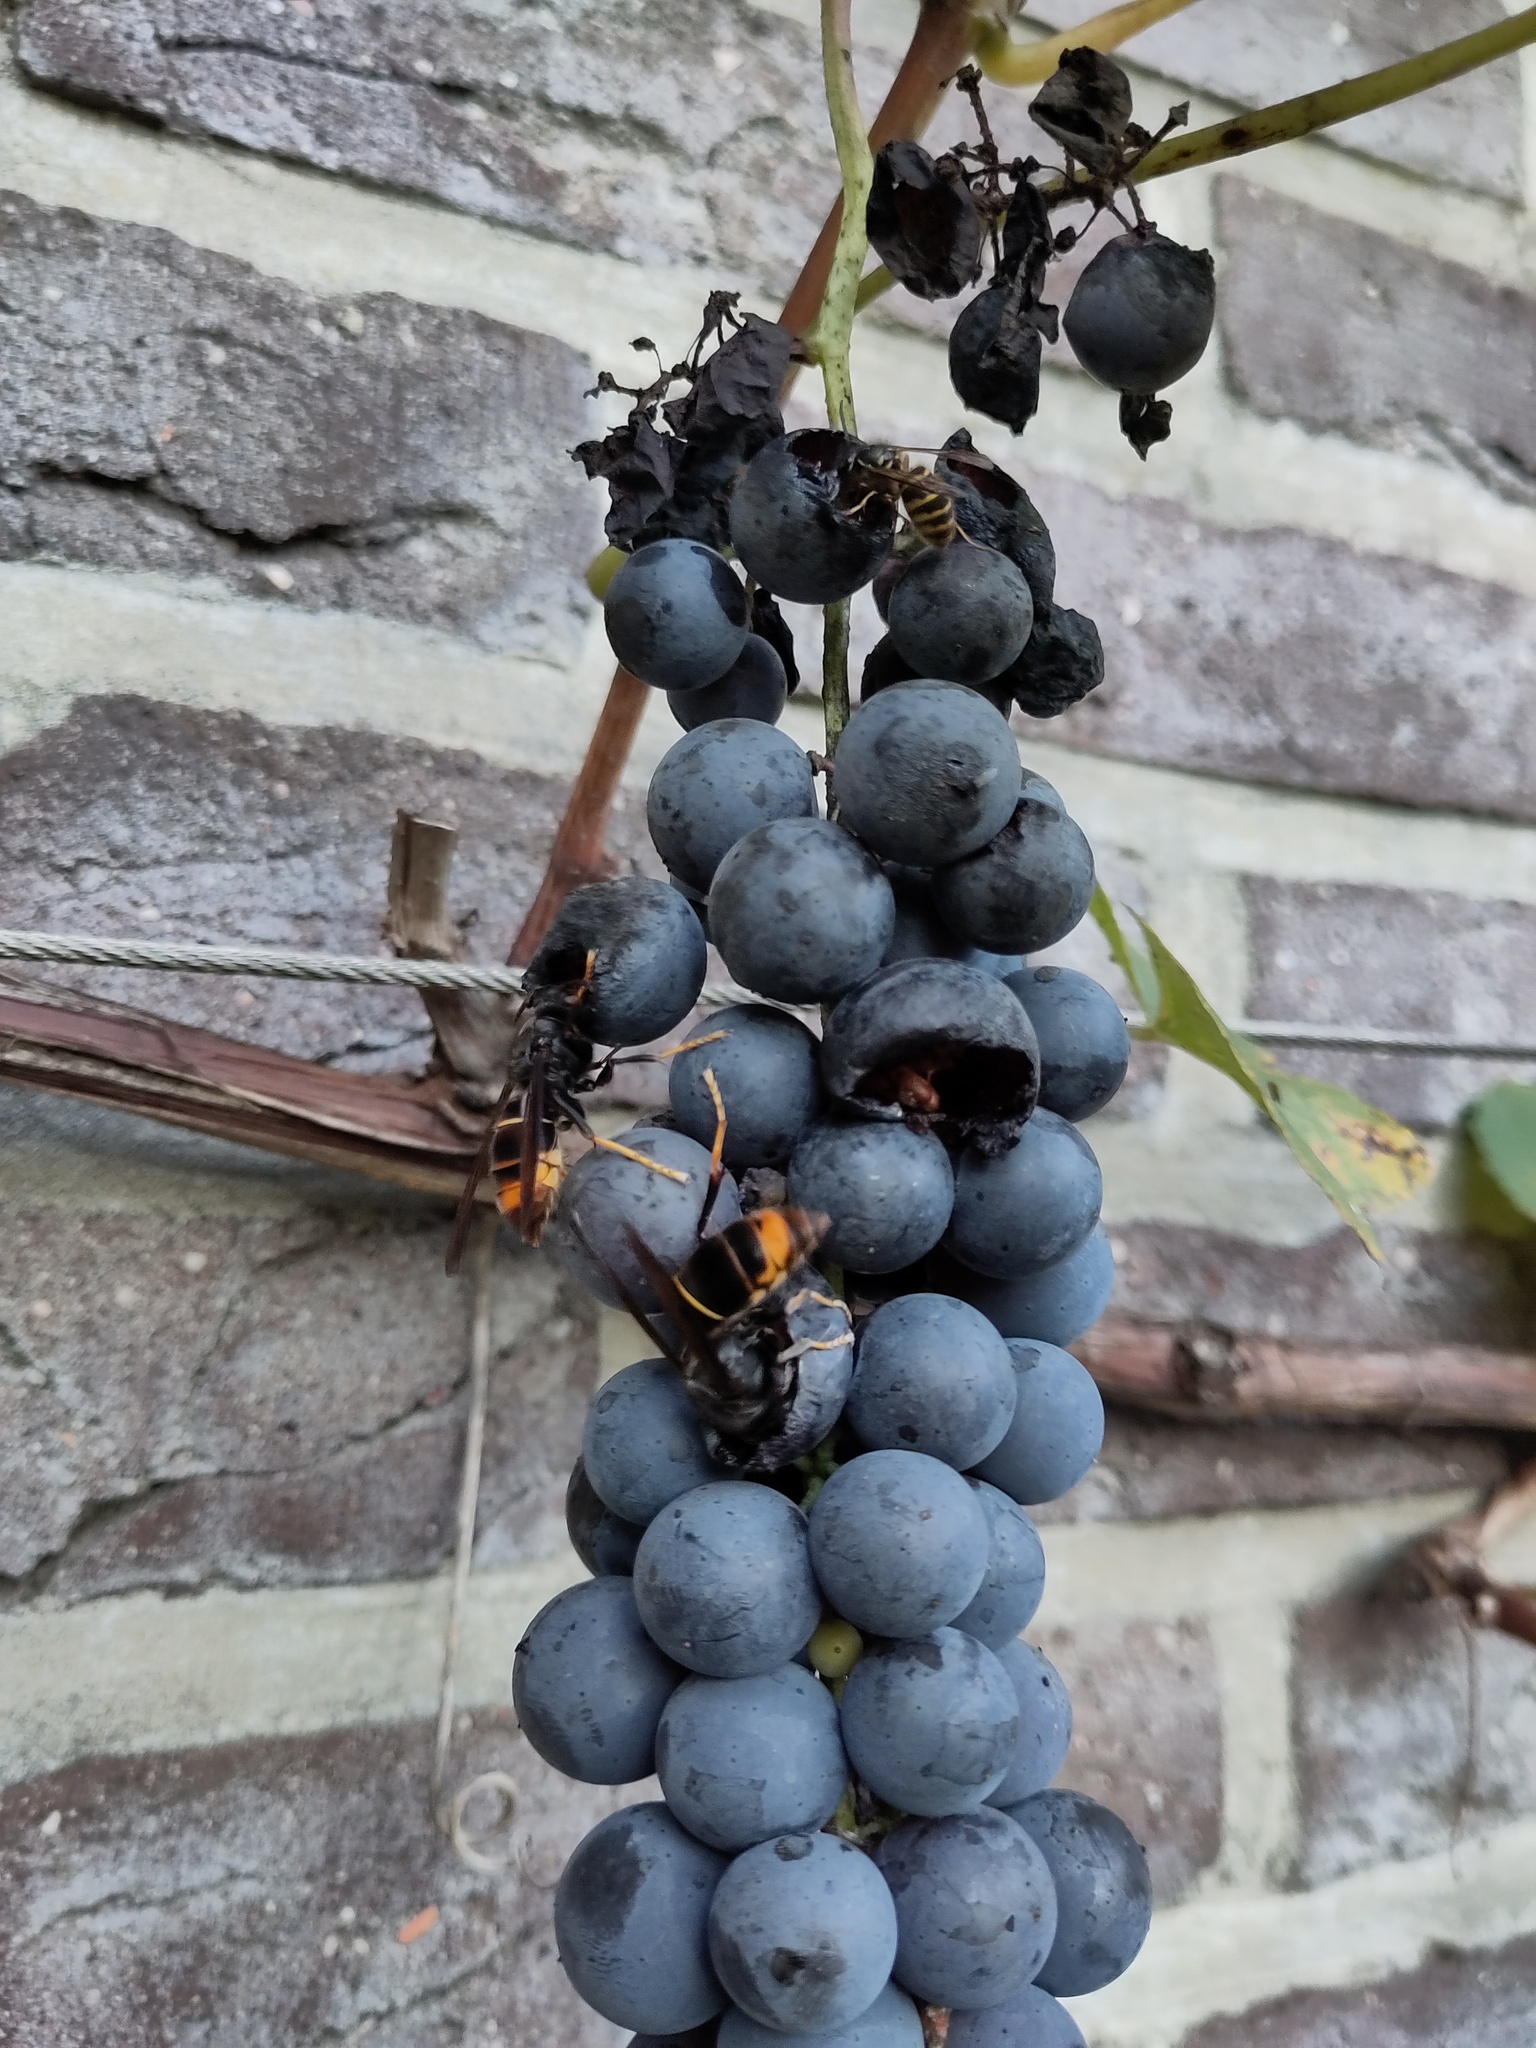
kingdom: Animalia
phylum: Arthropoda
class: Insecta
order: Hymenoptera
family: Vespidae
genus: Vespa
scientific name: Vespa velutina
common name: Asian hornet
